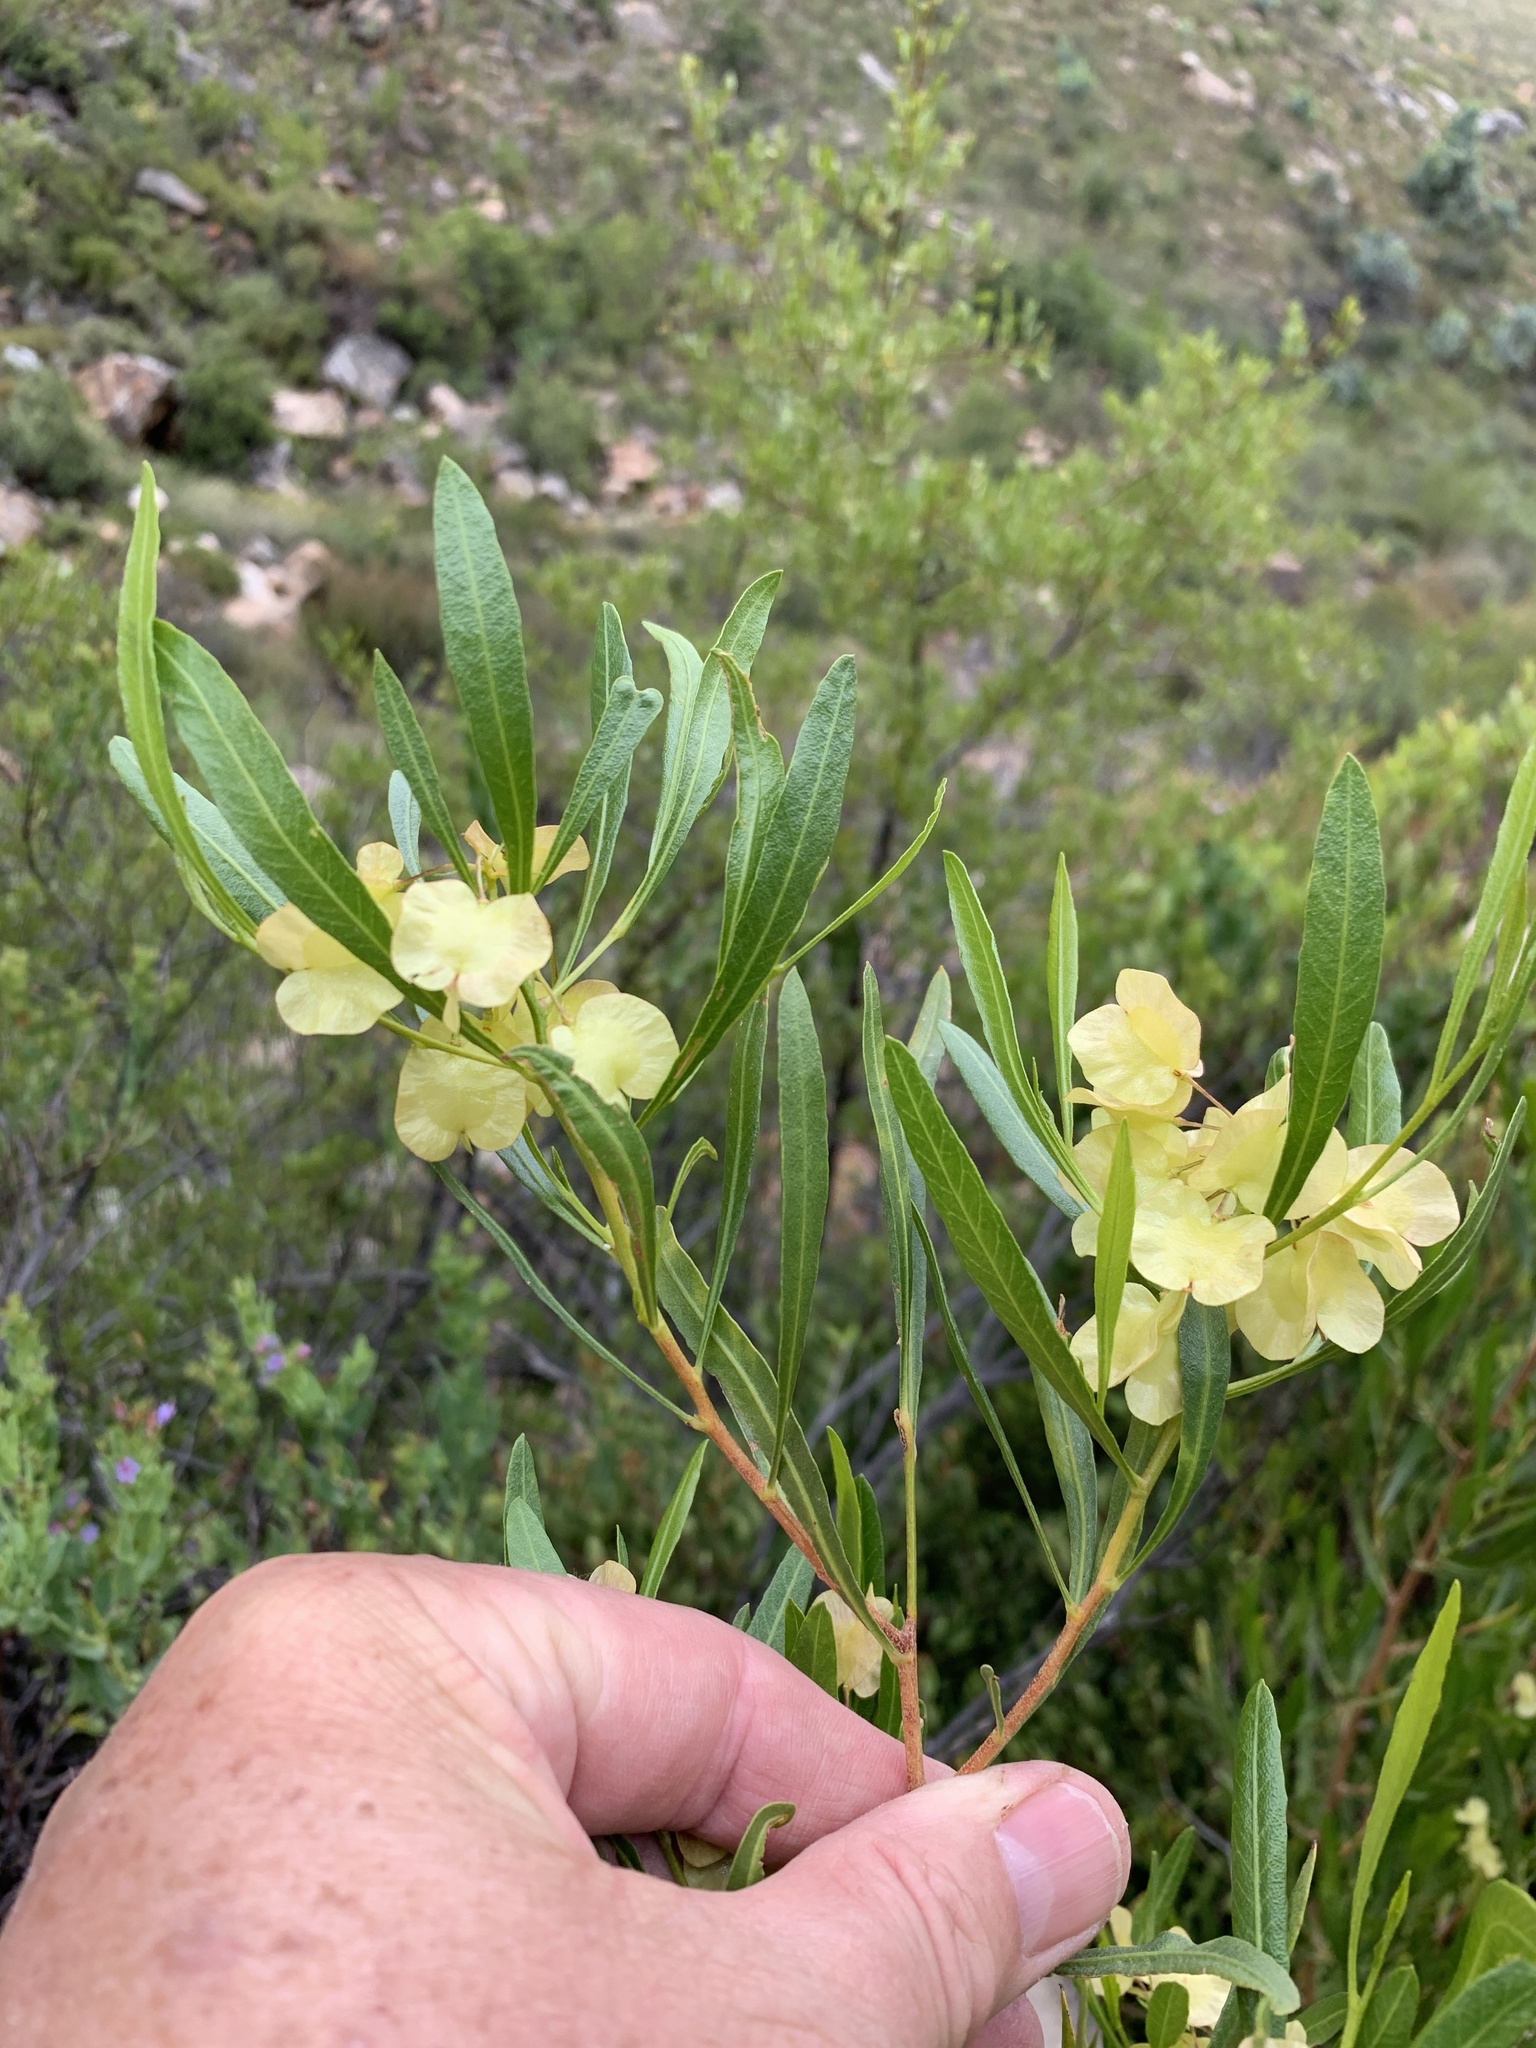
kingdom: Plantae
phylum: Tracheophyta
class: Magnoliopsida
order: Sapindales
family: Sapindaceae
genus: Dodonaea
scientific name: Dodonaea viscosa
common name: Hopbush
